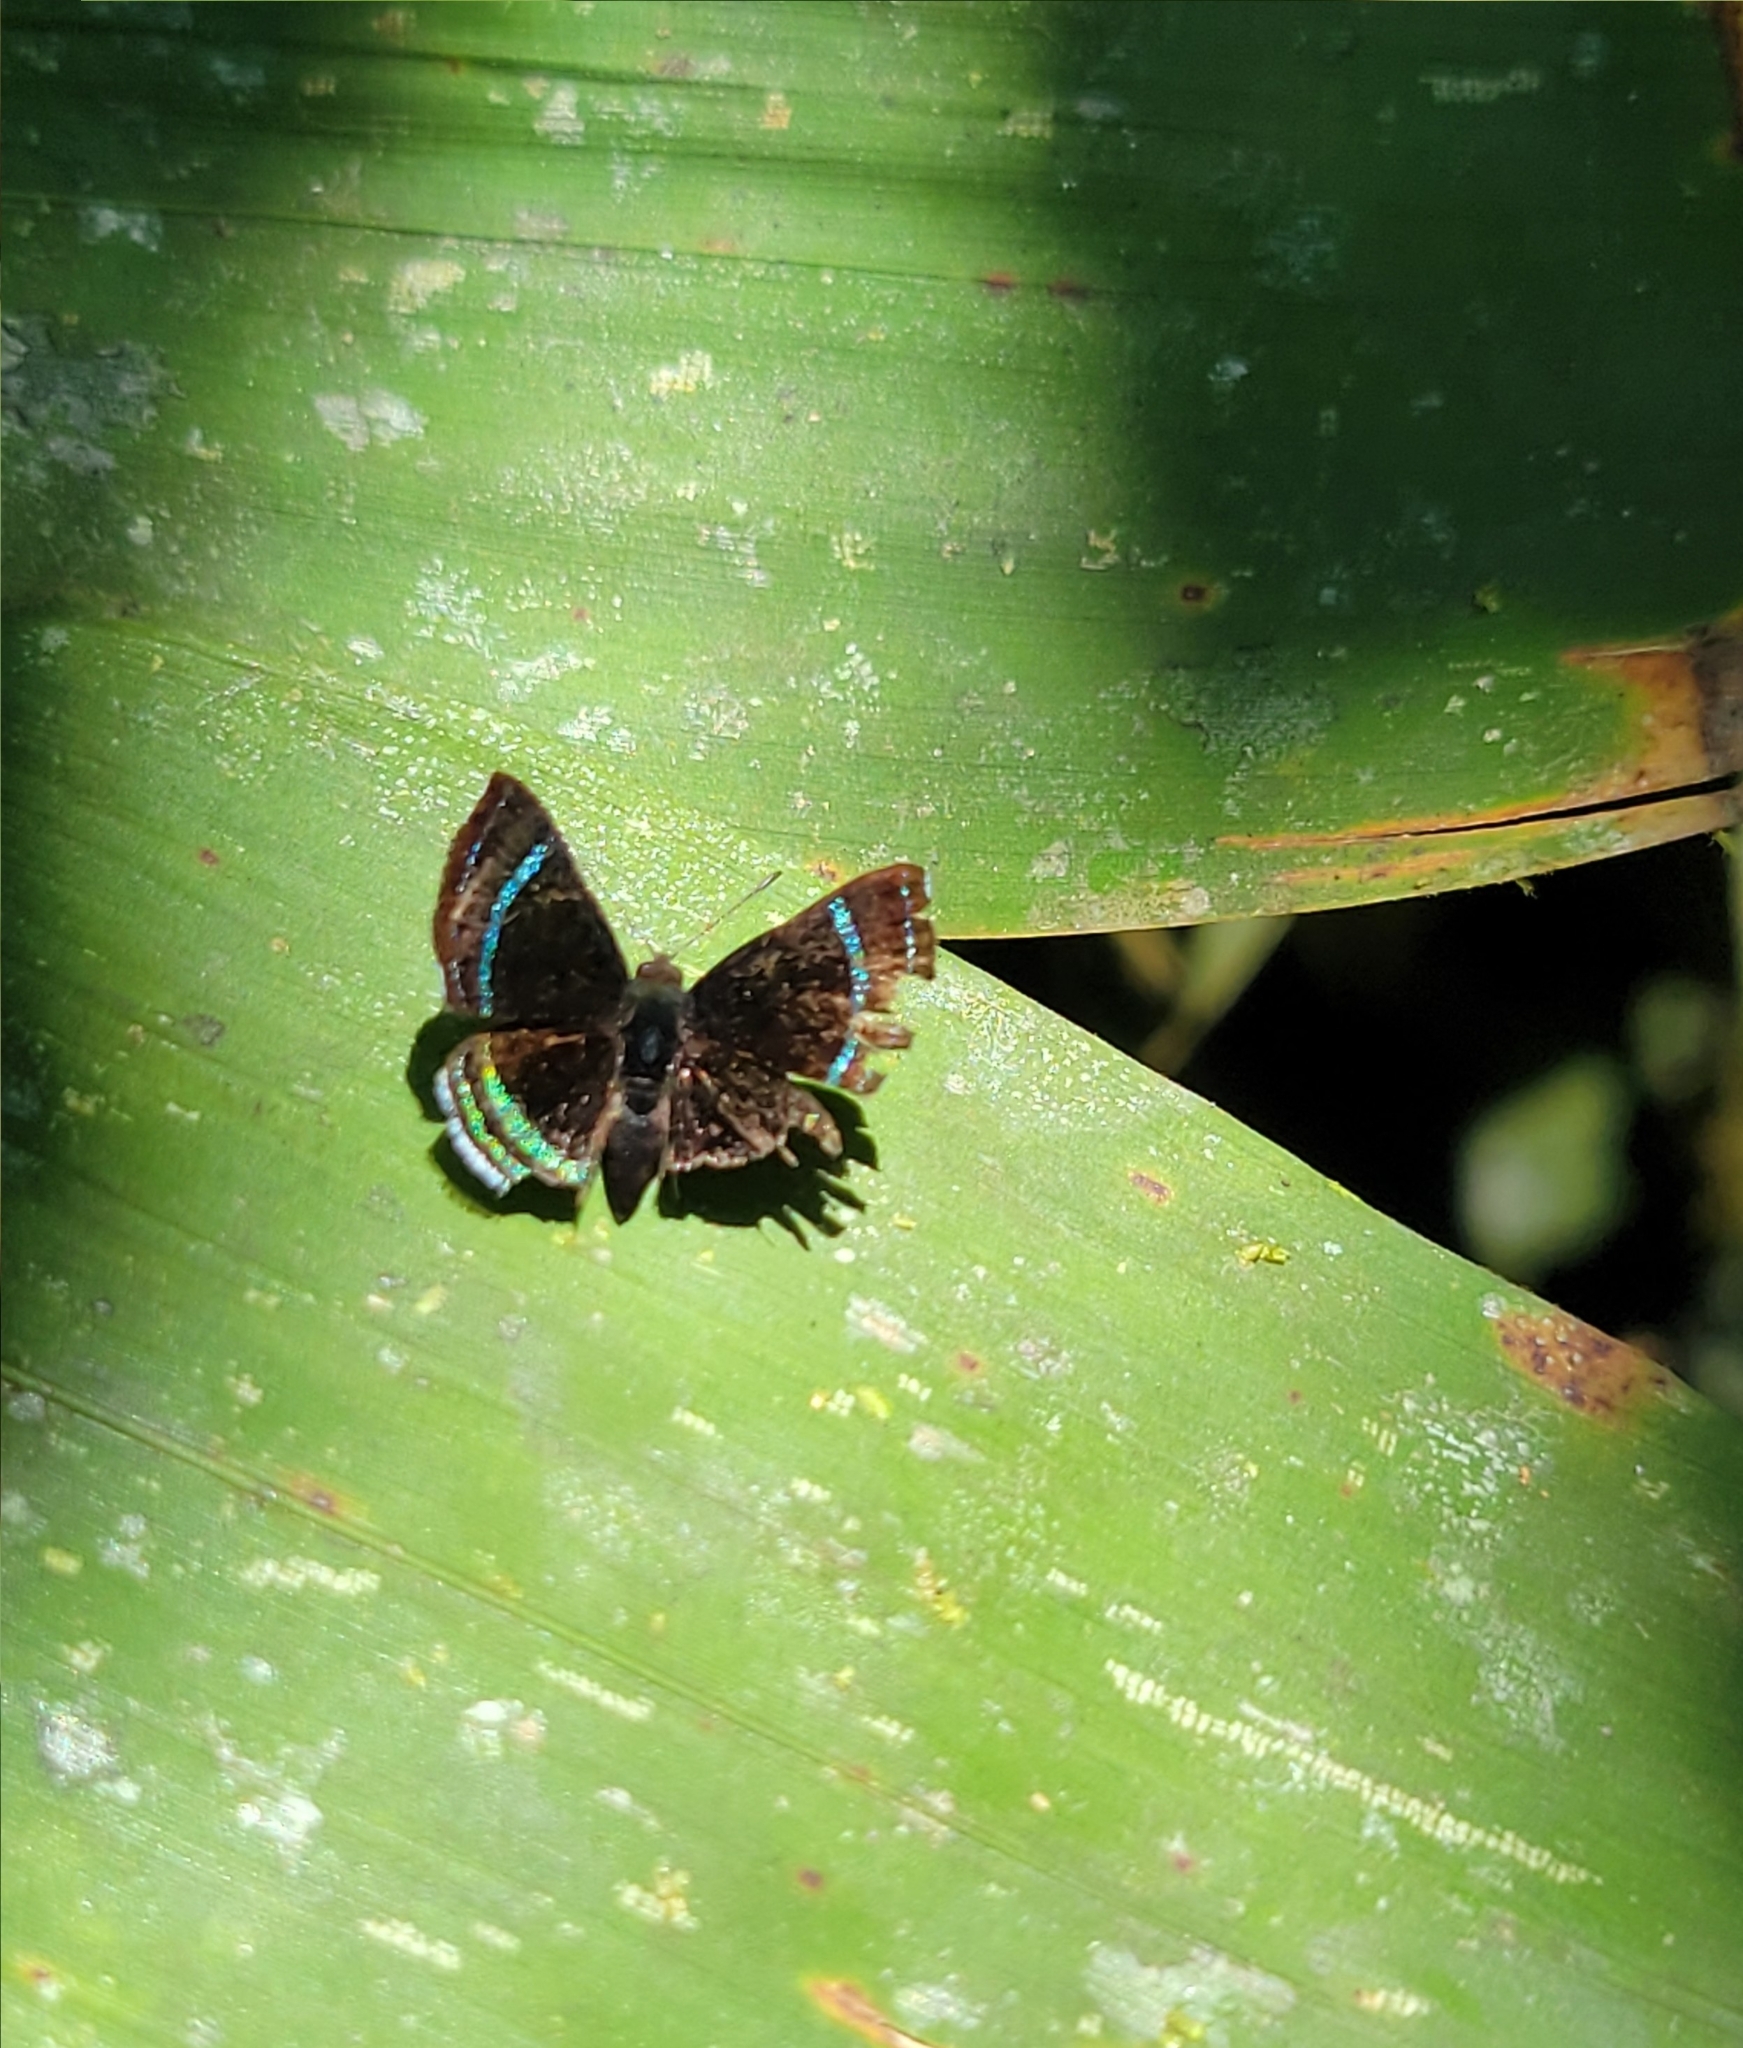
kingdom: Animalia
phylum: Arthropoda
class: Insecta
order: Lepidoptera
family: Riodinidae
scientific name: Riodinidae
